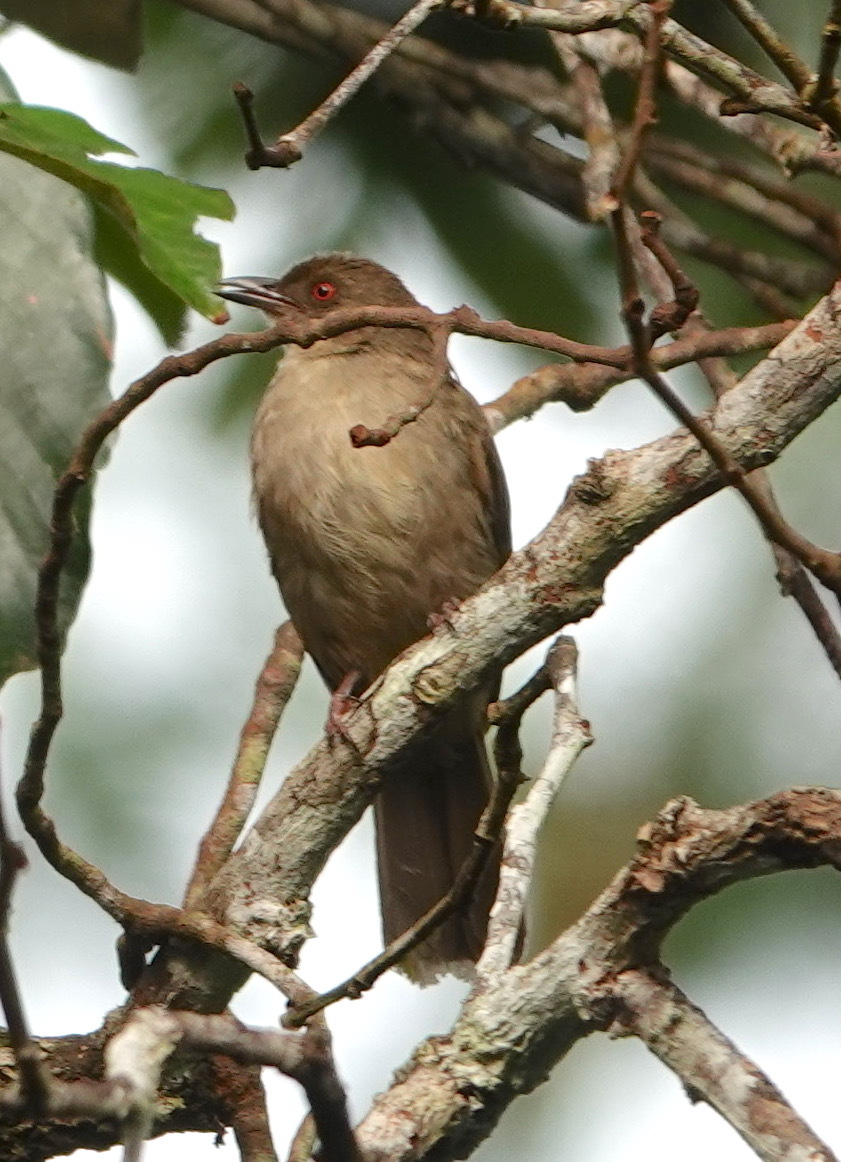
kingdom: Animalia
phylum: Chordata
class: Aves
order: Passeriformes
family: Pycnonotidae
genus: Pycnonotus
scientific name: Pycnonotus brunneus
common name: Asian red-eyed bulbul
